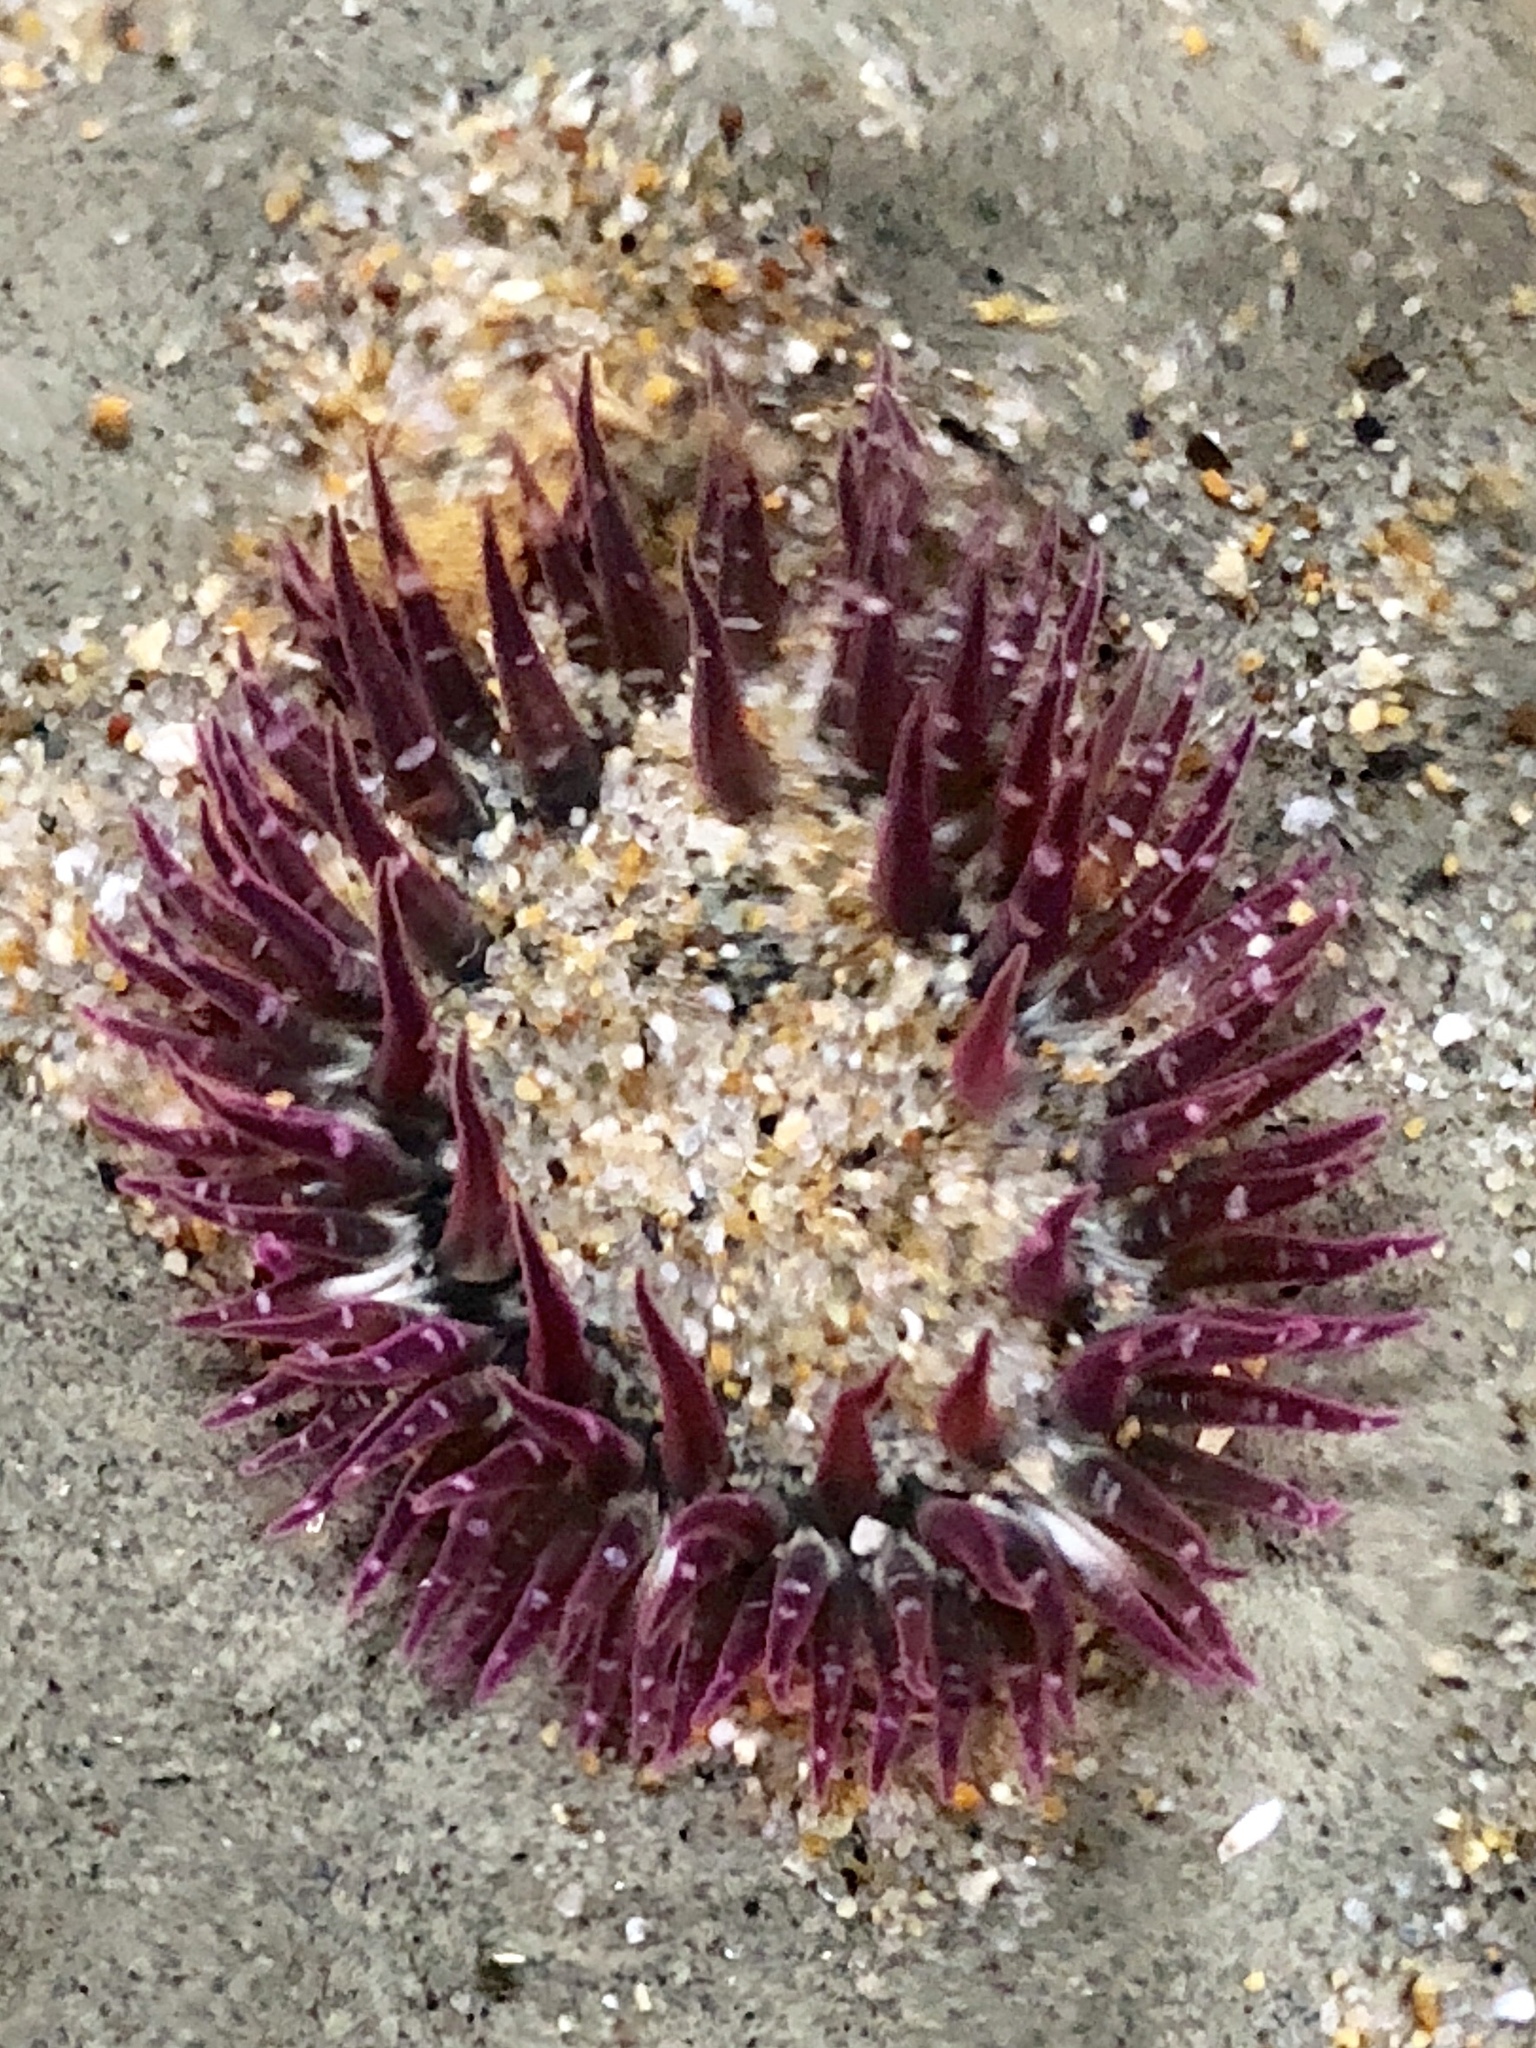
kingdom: Animalia
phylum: Cnidaria
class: Anthozoa
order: Actiniaria
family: Actiniidae
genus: Anthopleura
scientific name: Anthopleura artemisia
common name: Buried sea anemone
